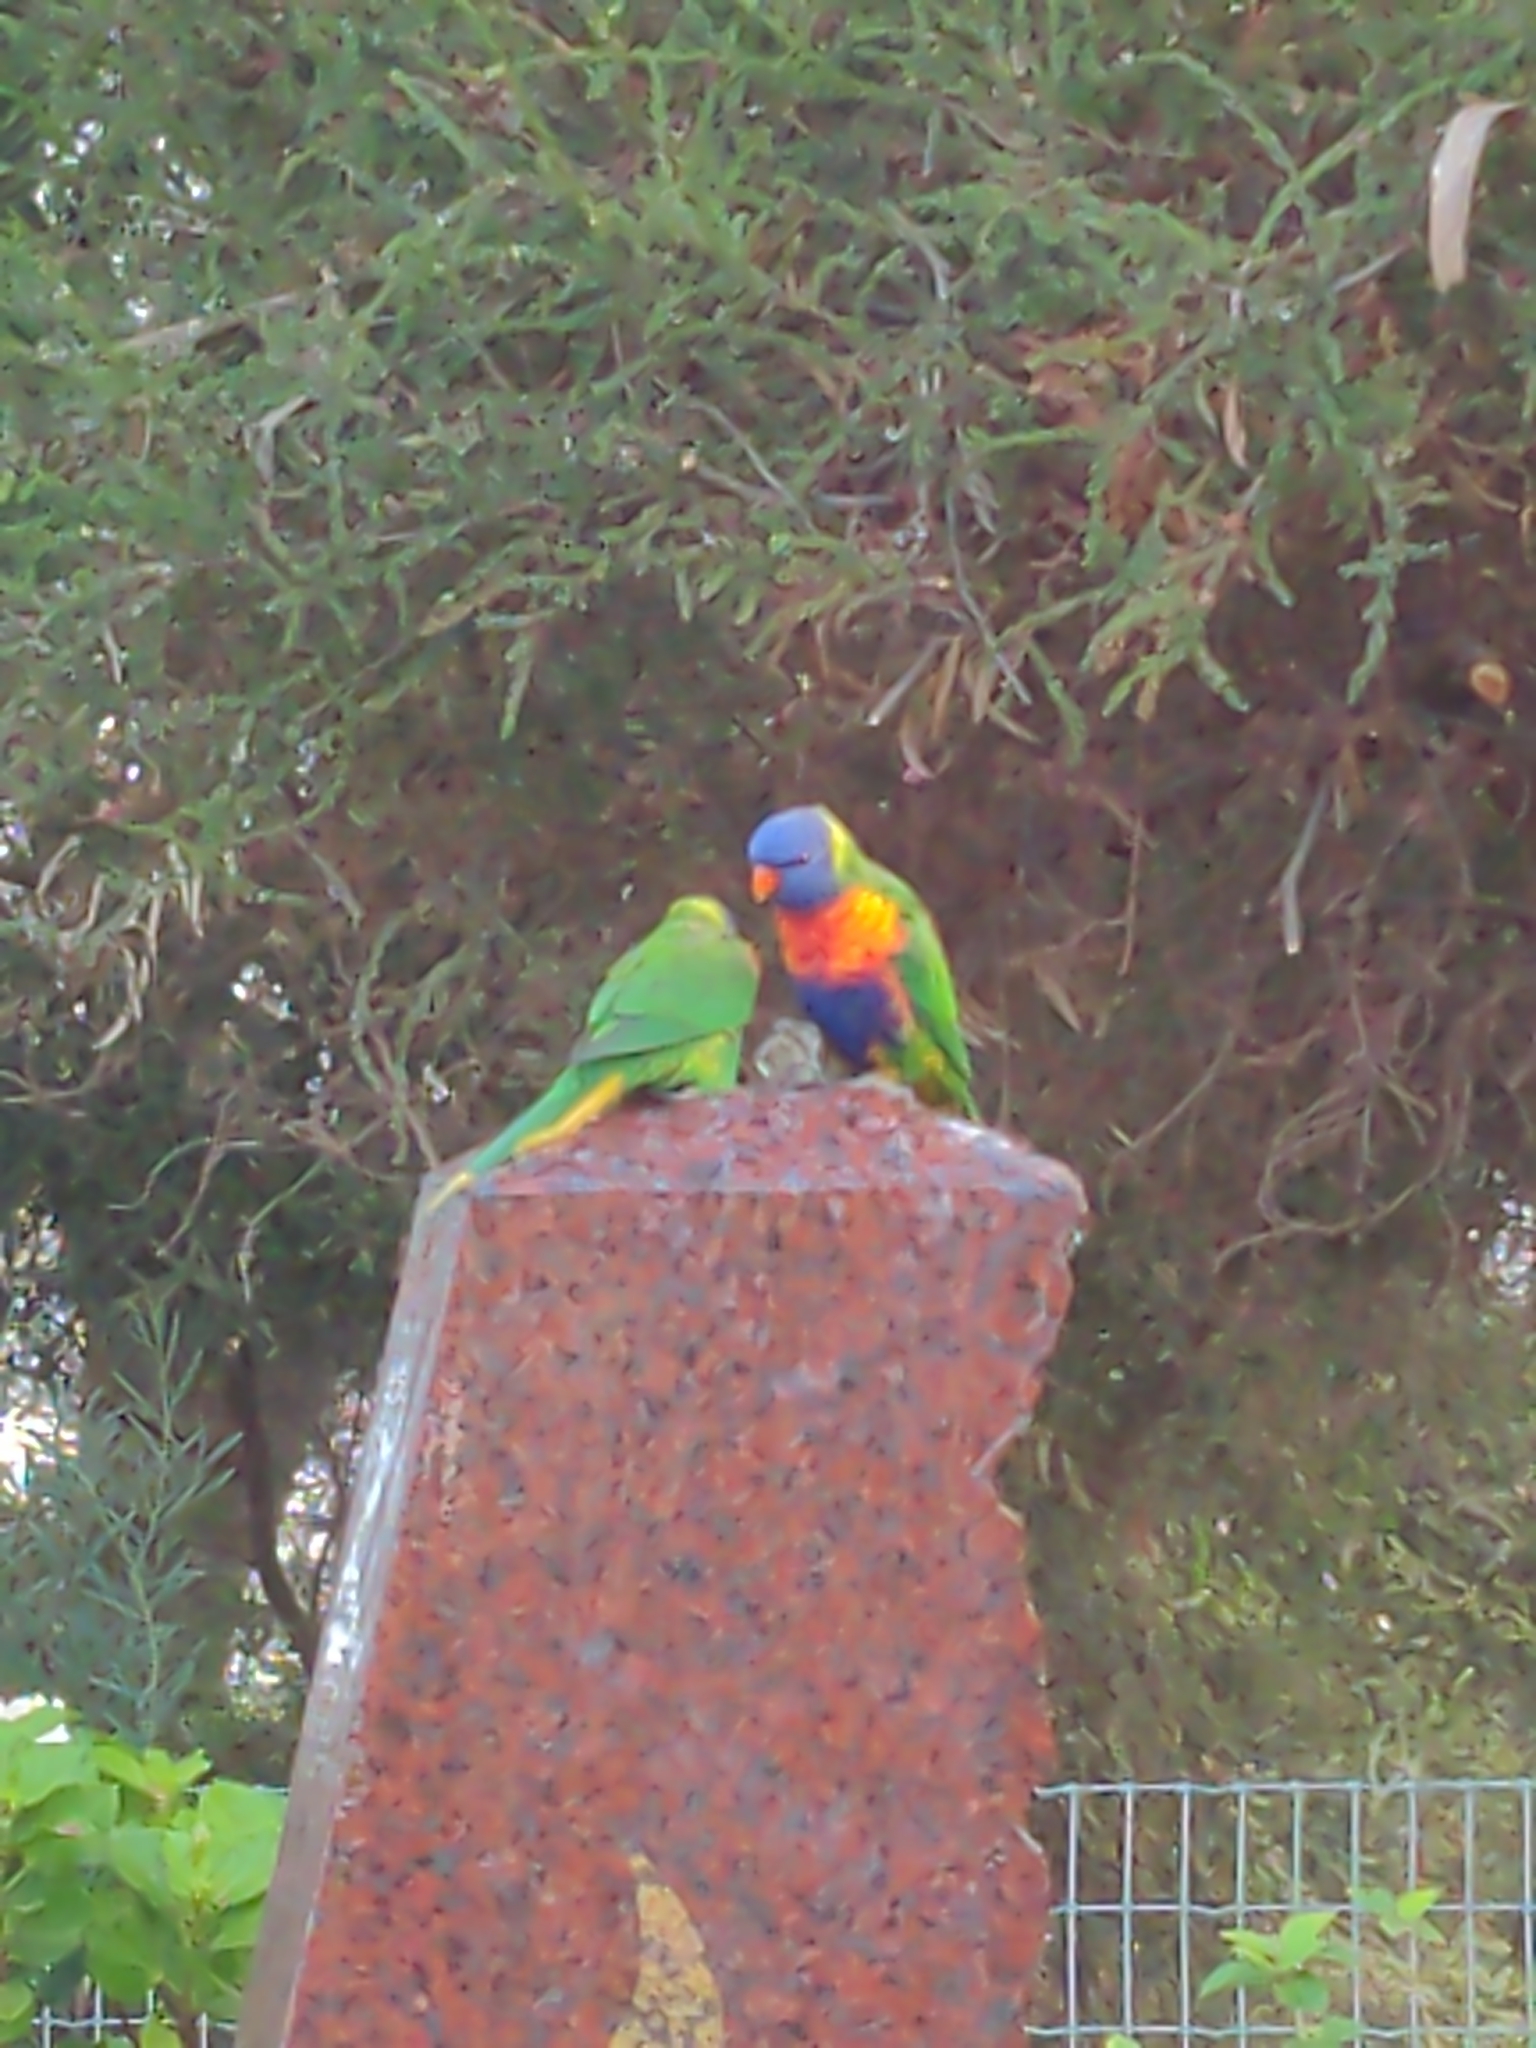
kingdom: Animalia
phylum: Chordata
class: Aves
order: Psittaciformes
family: Psittacidae
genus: Trichoglossus
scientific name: Trichoglossus haematodus
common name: Coconut lorikeet
